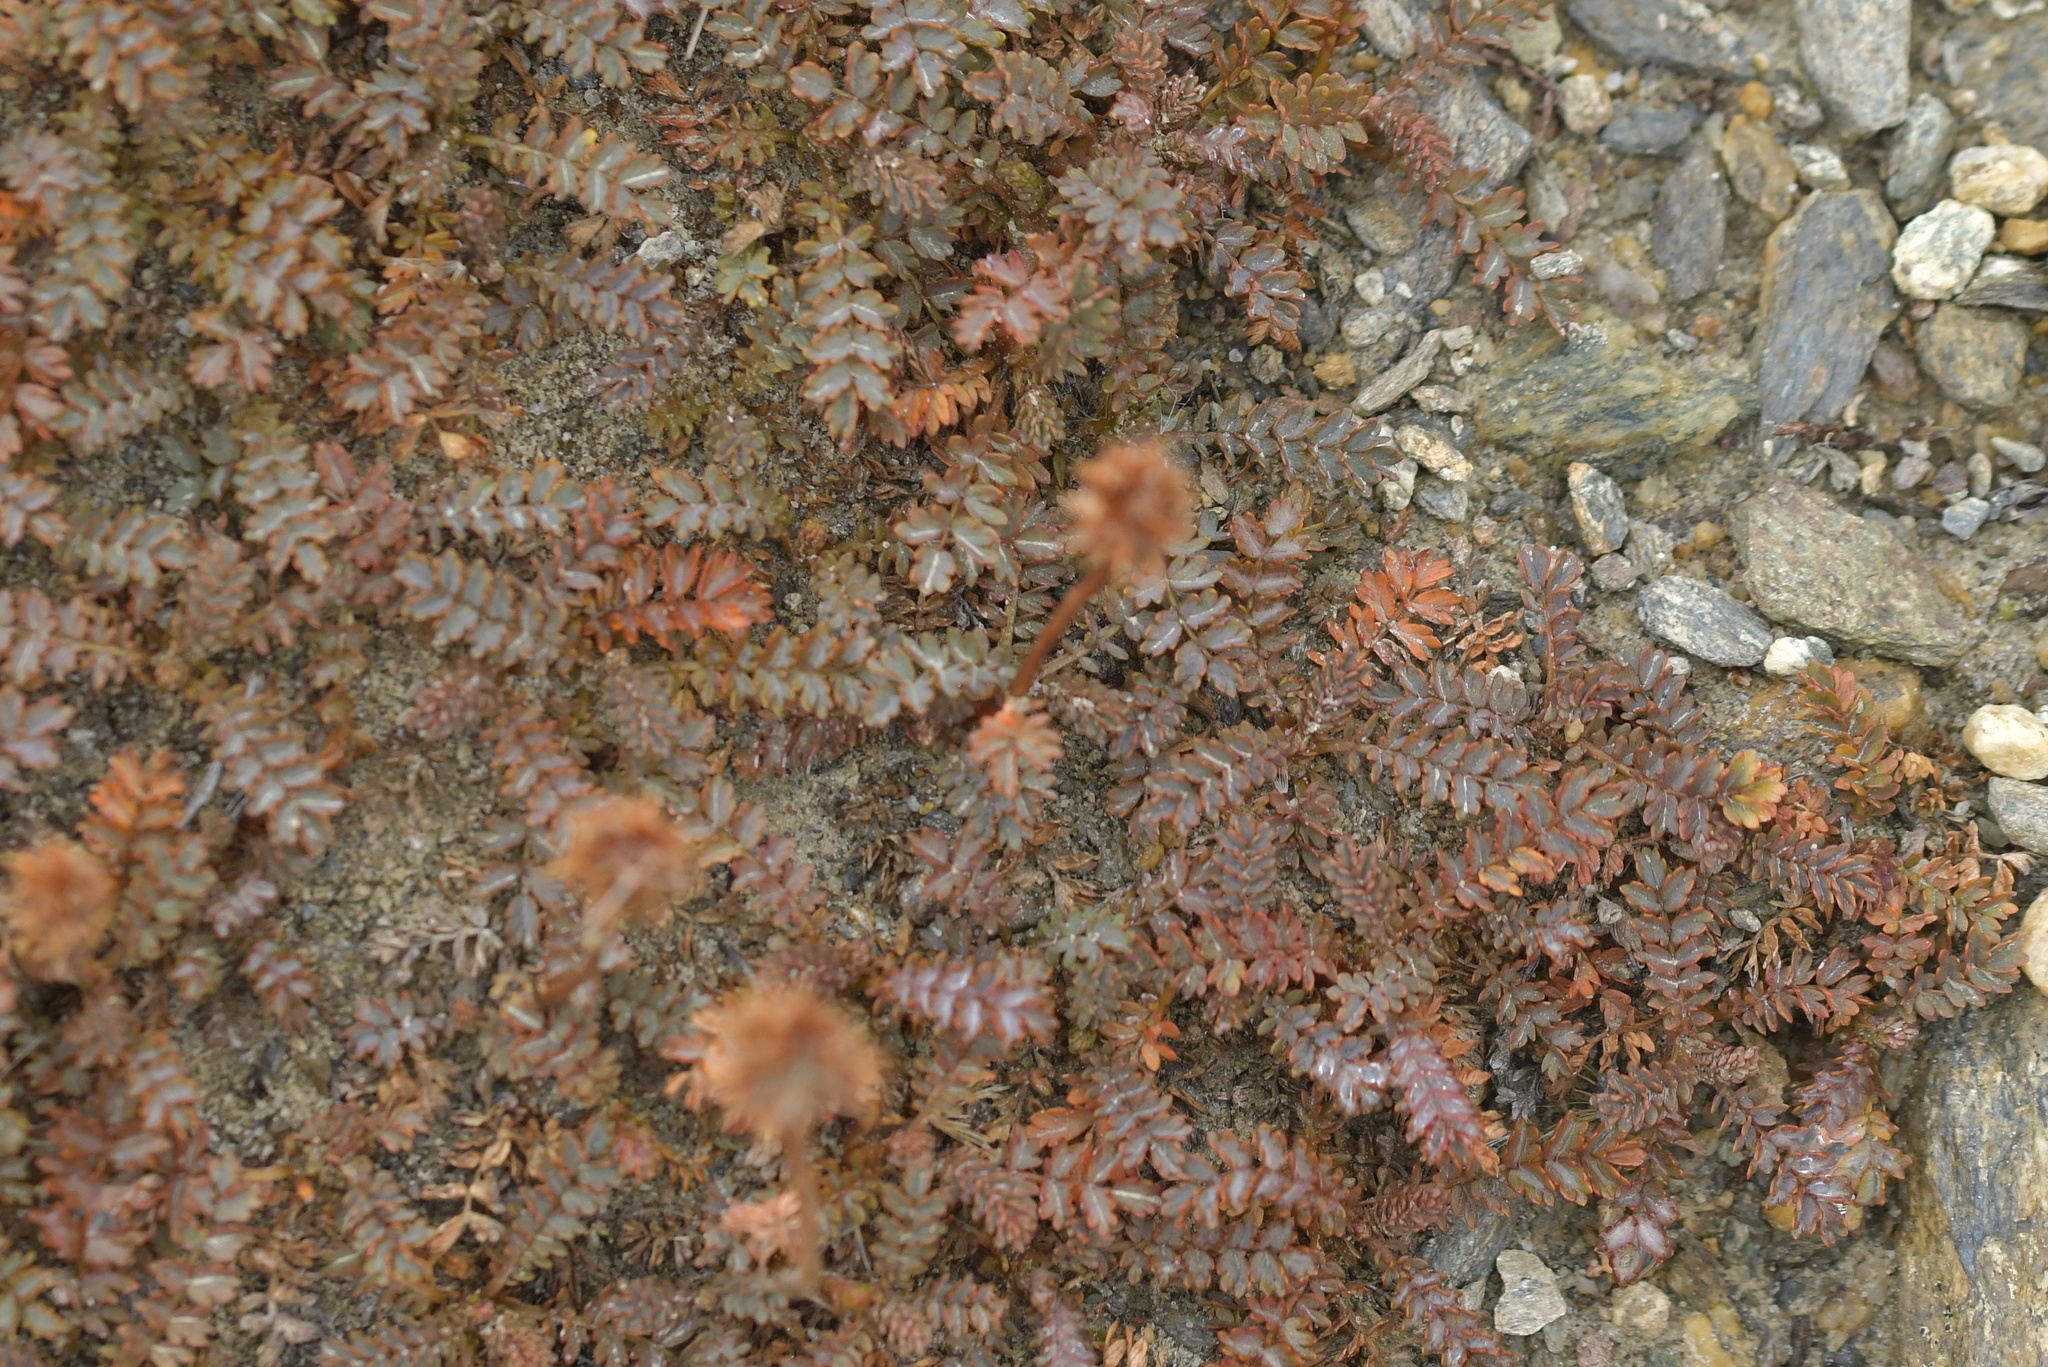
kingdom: Plantae
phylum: Tracheophyta
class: Magnoliopsida
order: Rosales
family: Rosaceae
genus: Acaena
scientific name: Acaena saccaticupula
